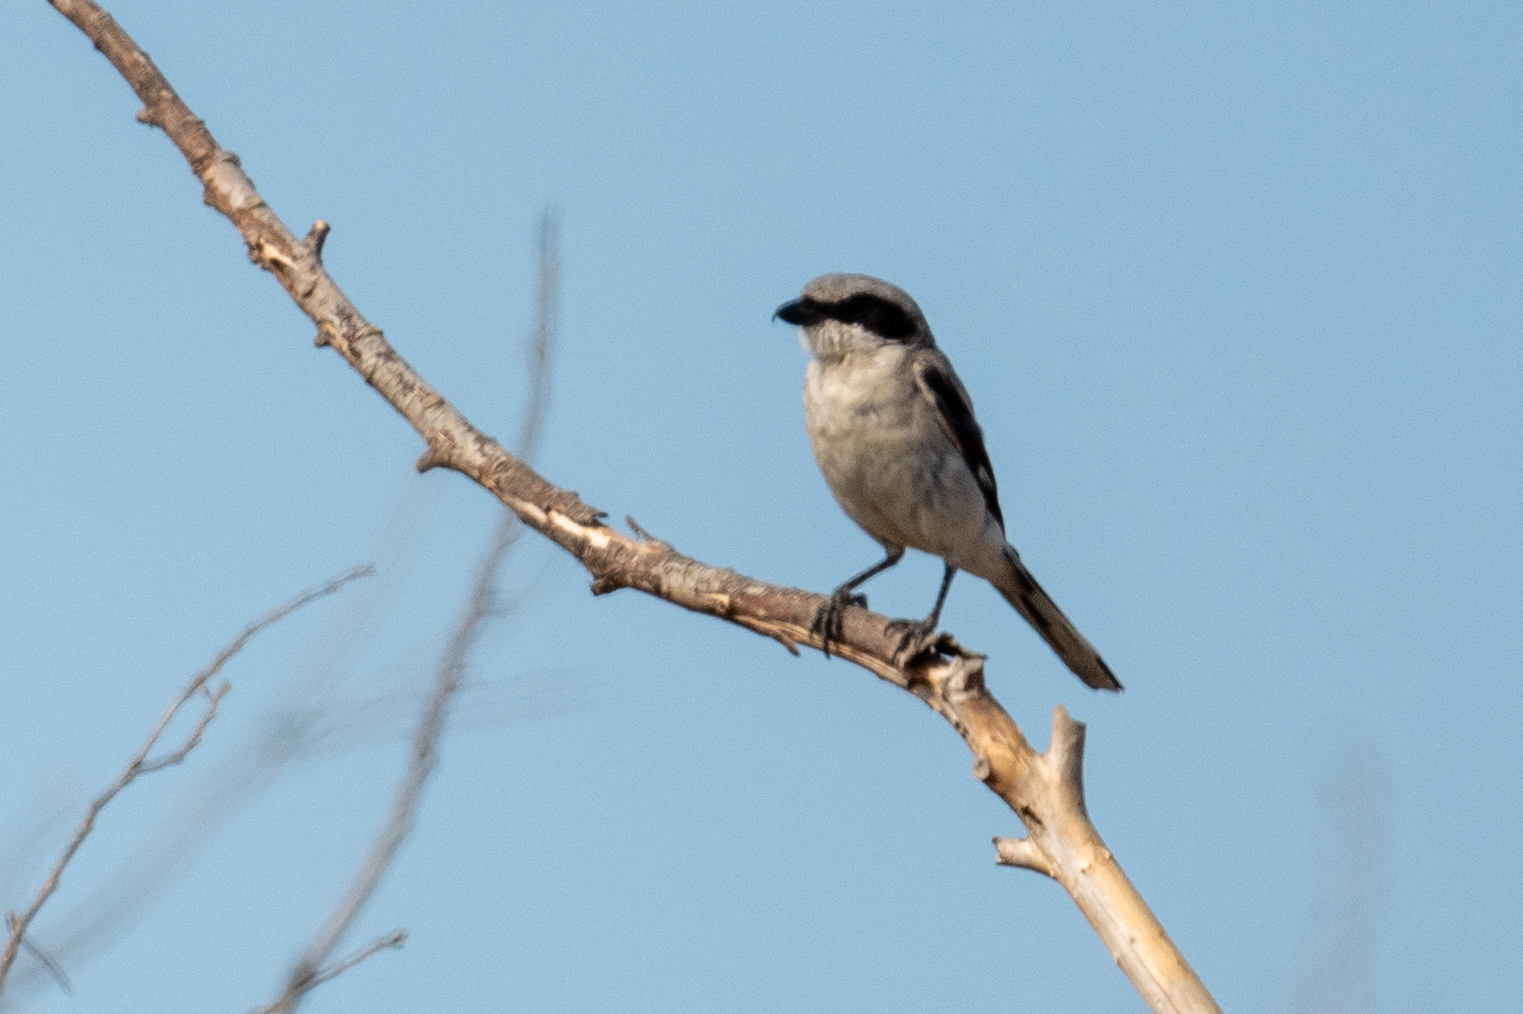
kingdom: Animalia
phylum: Chordata
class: Aves
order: Passeriformes
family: Laniidae
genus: Lanius
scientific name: Lanius ludovicianus
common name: Loggerhead shrike
